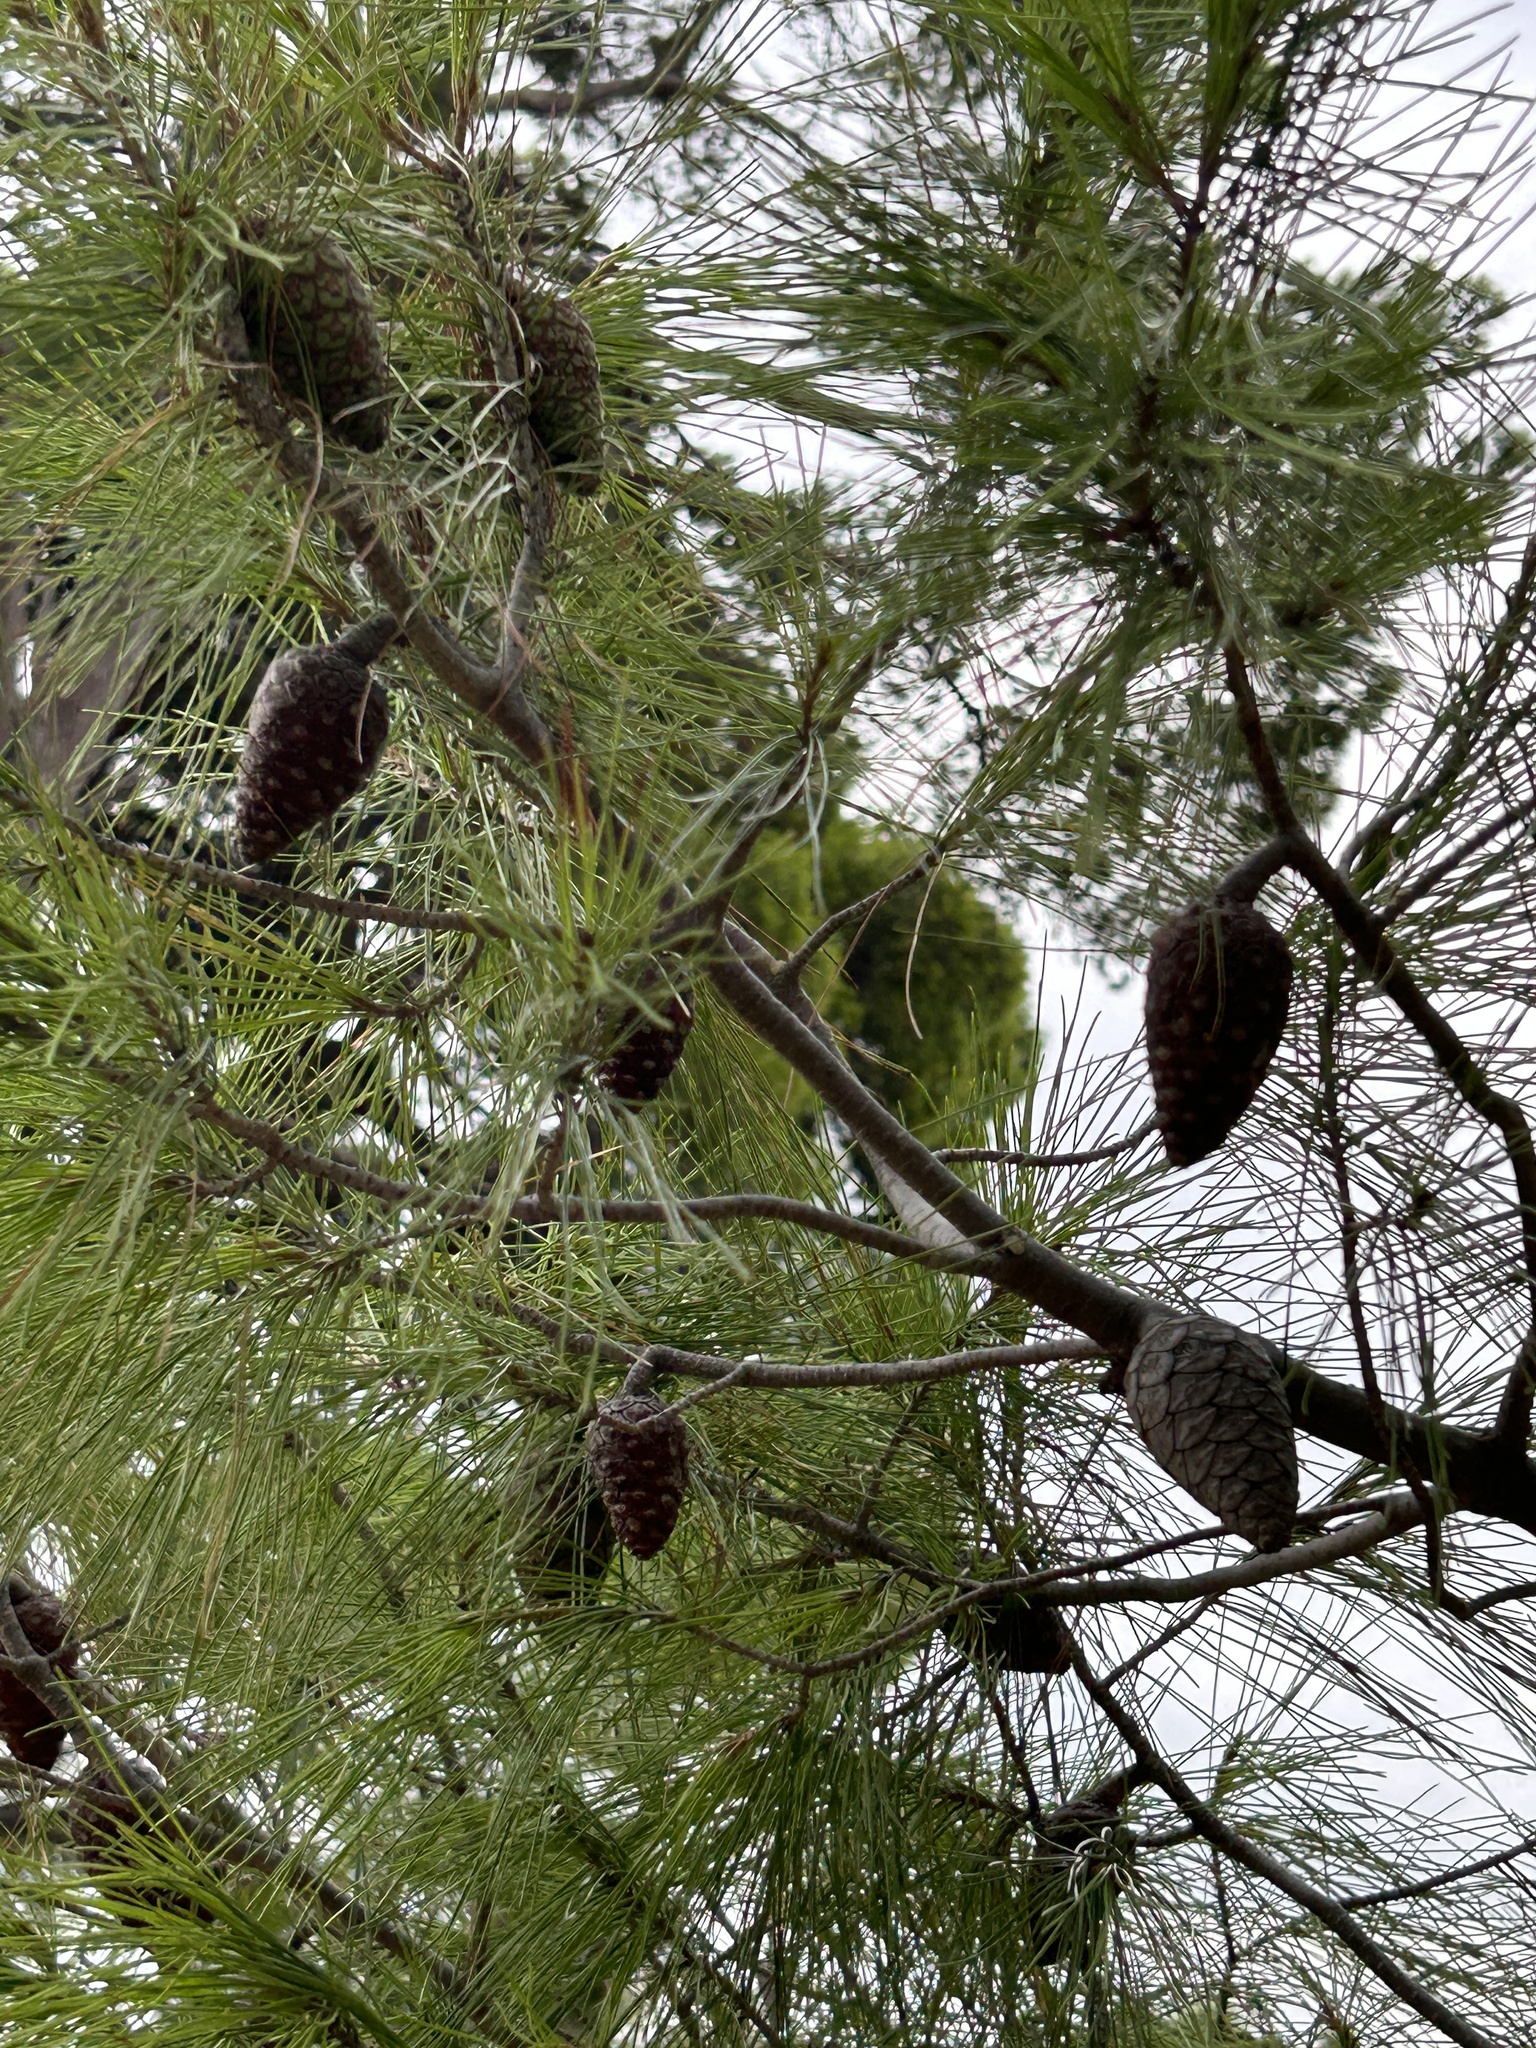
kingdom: Animalia
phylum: Chordata
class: Mammalia
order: Rodentia
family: Sciuridae
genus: Sciurus
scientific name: Sciurus vulgaris
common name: Eurasian red squirrel
